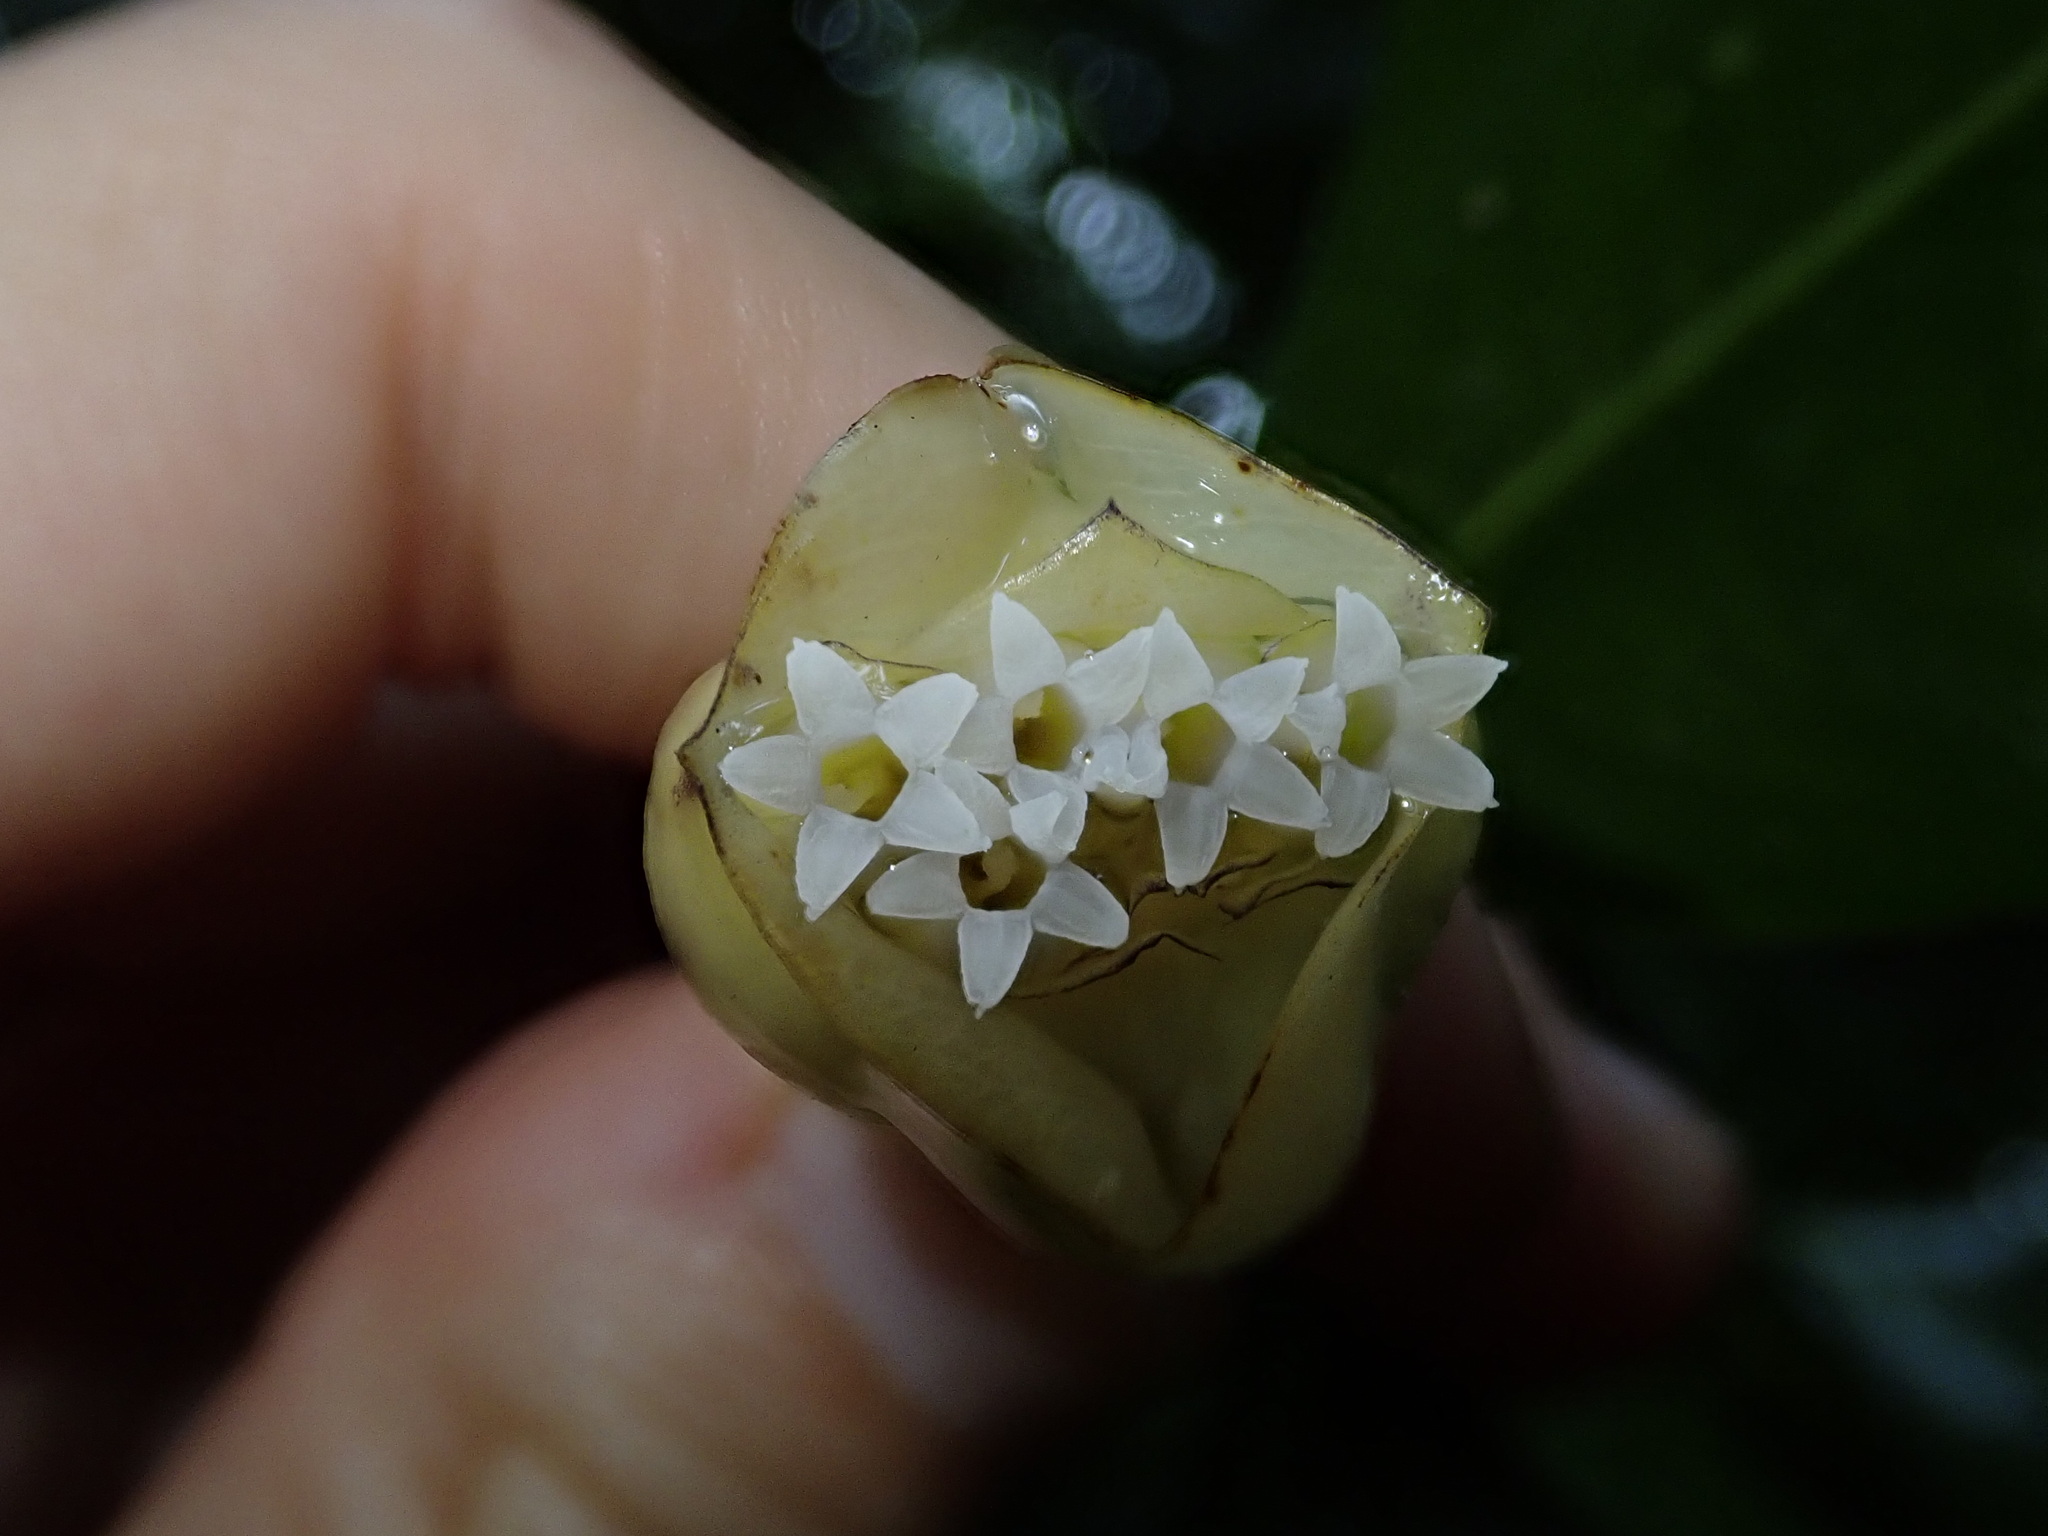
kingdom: Plantae
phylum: Tracheophyta
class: Magnoliopsida
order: Gentianales
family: Rubiaceae
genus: Palicourea
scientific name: Palicourea flaviflora
